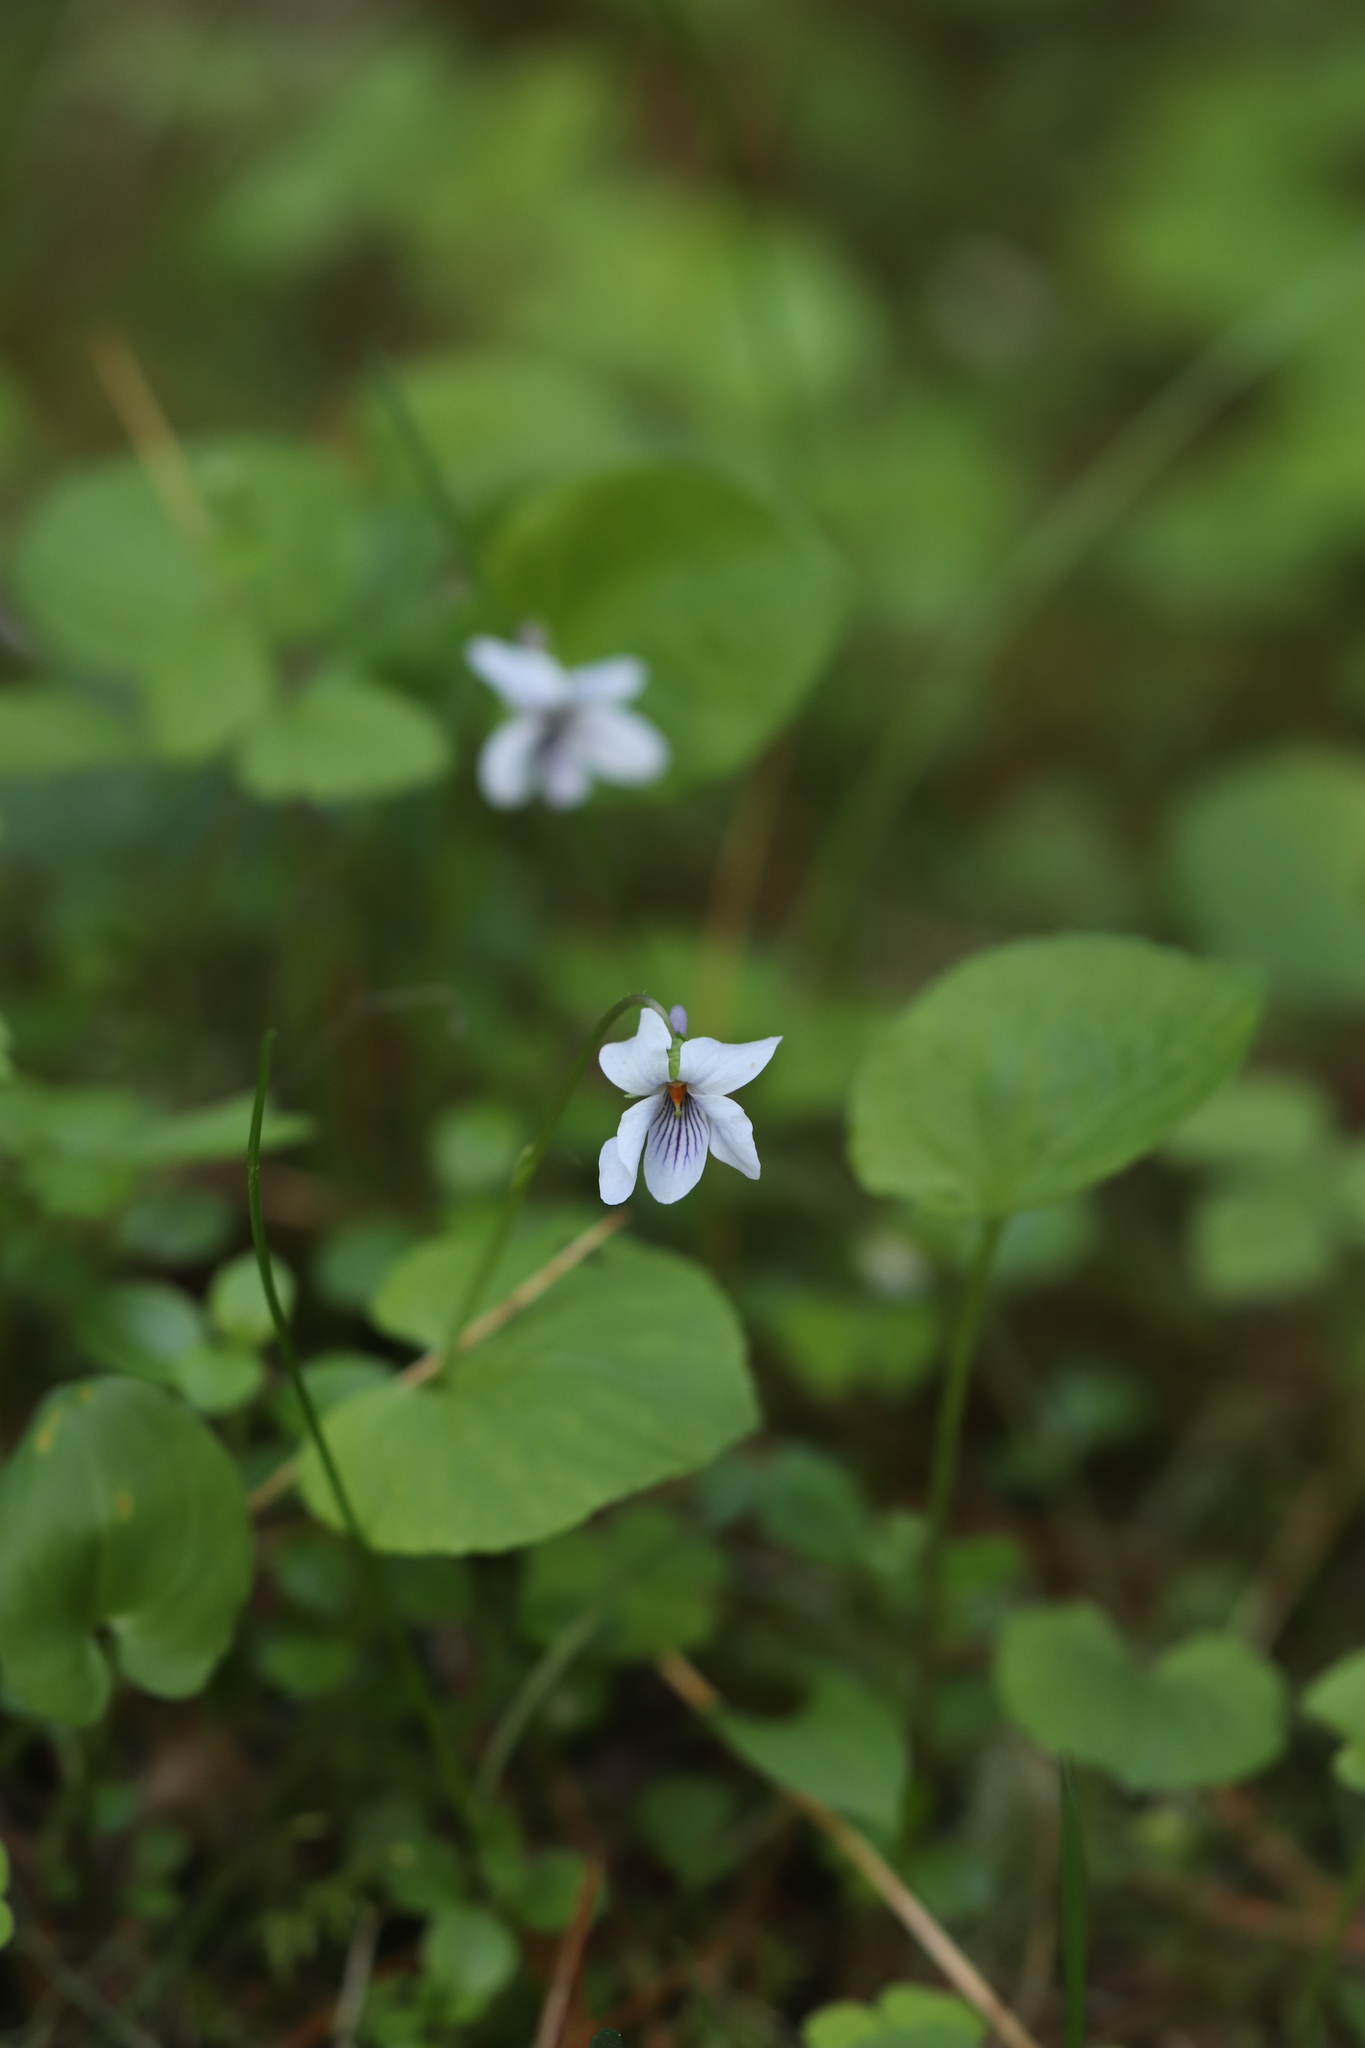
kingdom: Plantae
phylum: Tracheophyta
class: Magnoliopsida
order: Malpighiales
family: Violaceae
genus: Viola
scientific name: Viola epipsila
